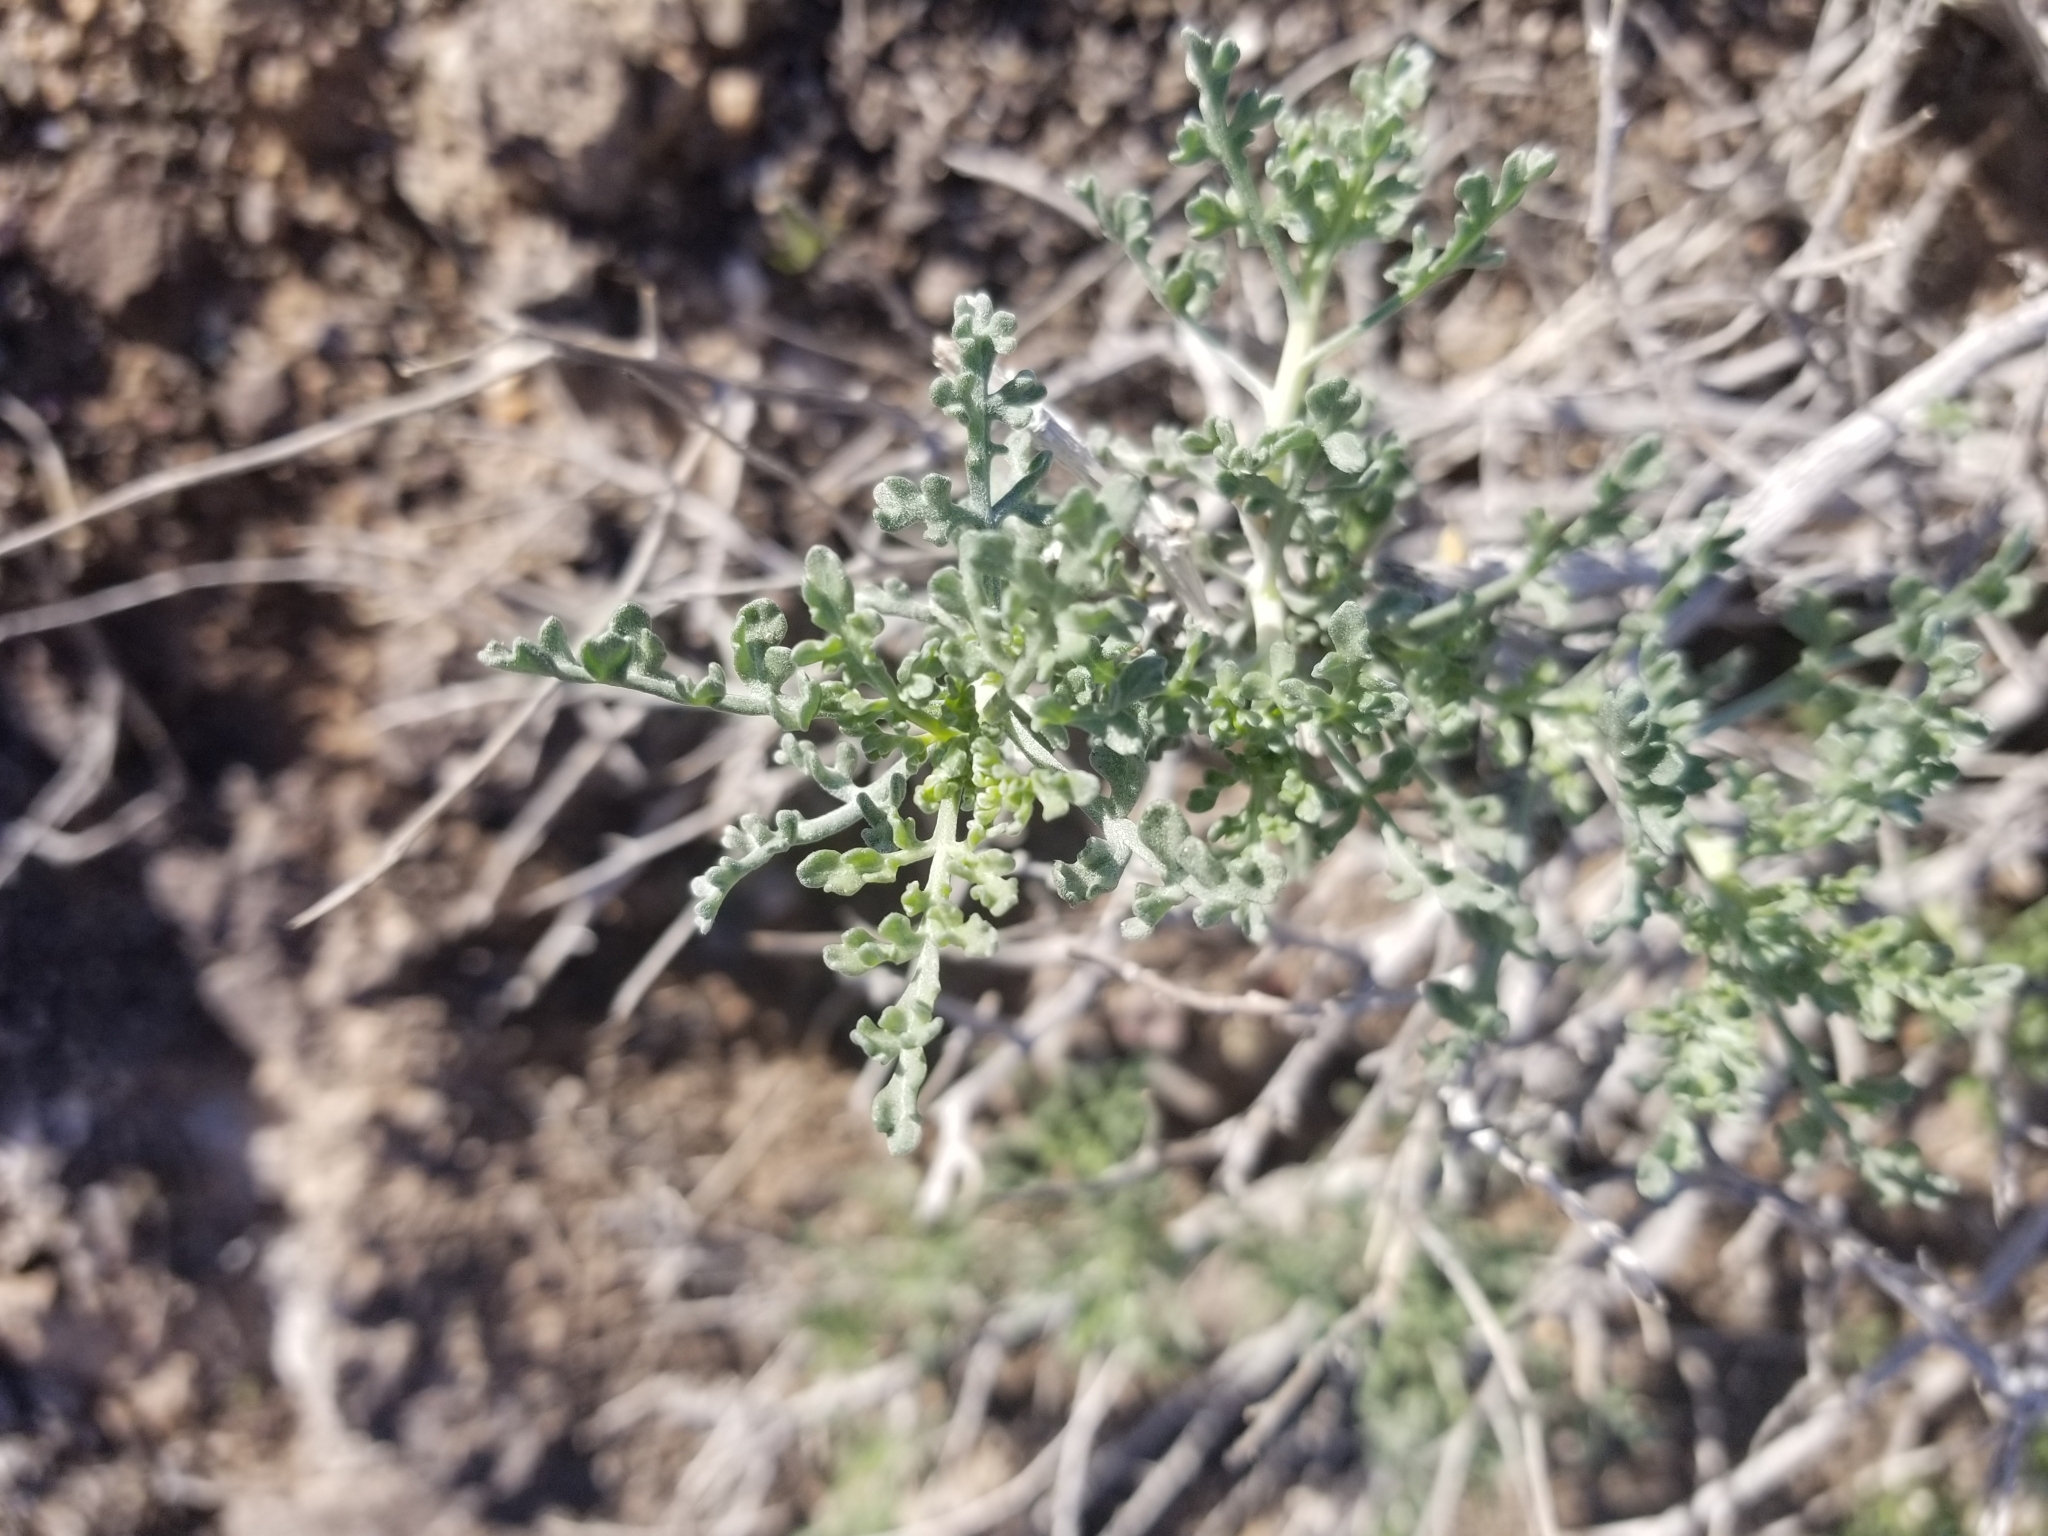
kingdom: Plantae
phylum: Tracheophyta
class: Magnoliopsida
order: Asterales
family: Asteraceae
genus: Ambrosia
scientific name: Ambrosia dumosa
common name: Bur-sage
